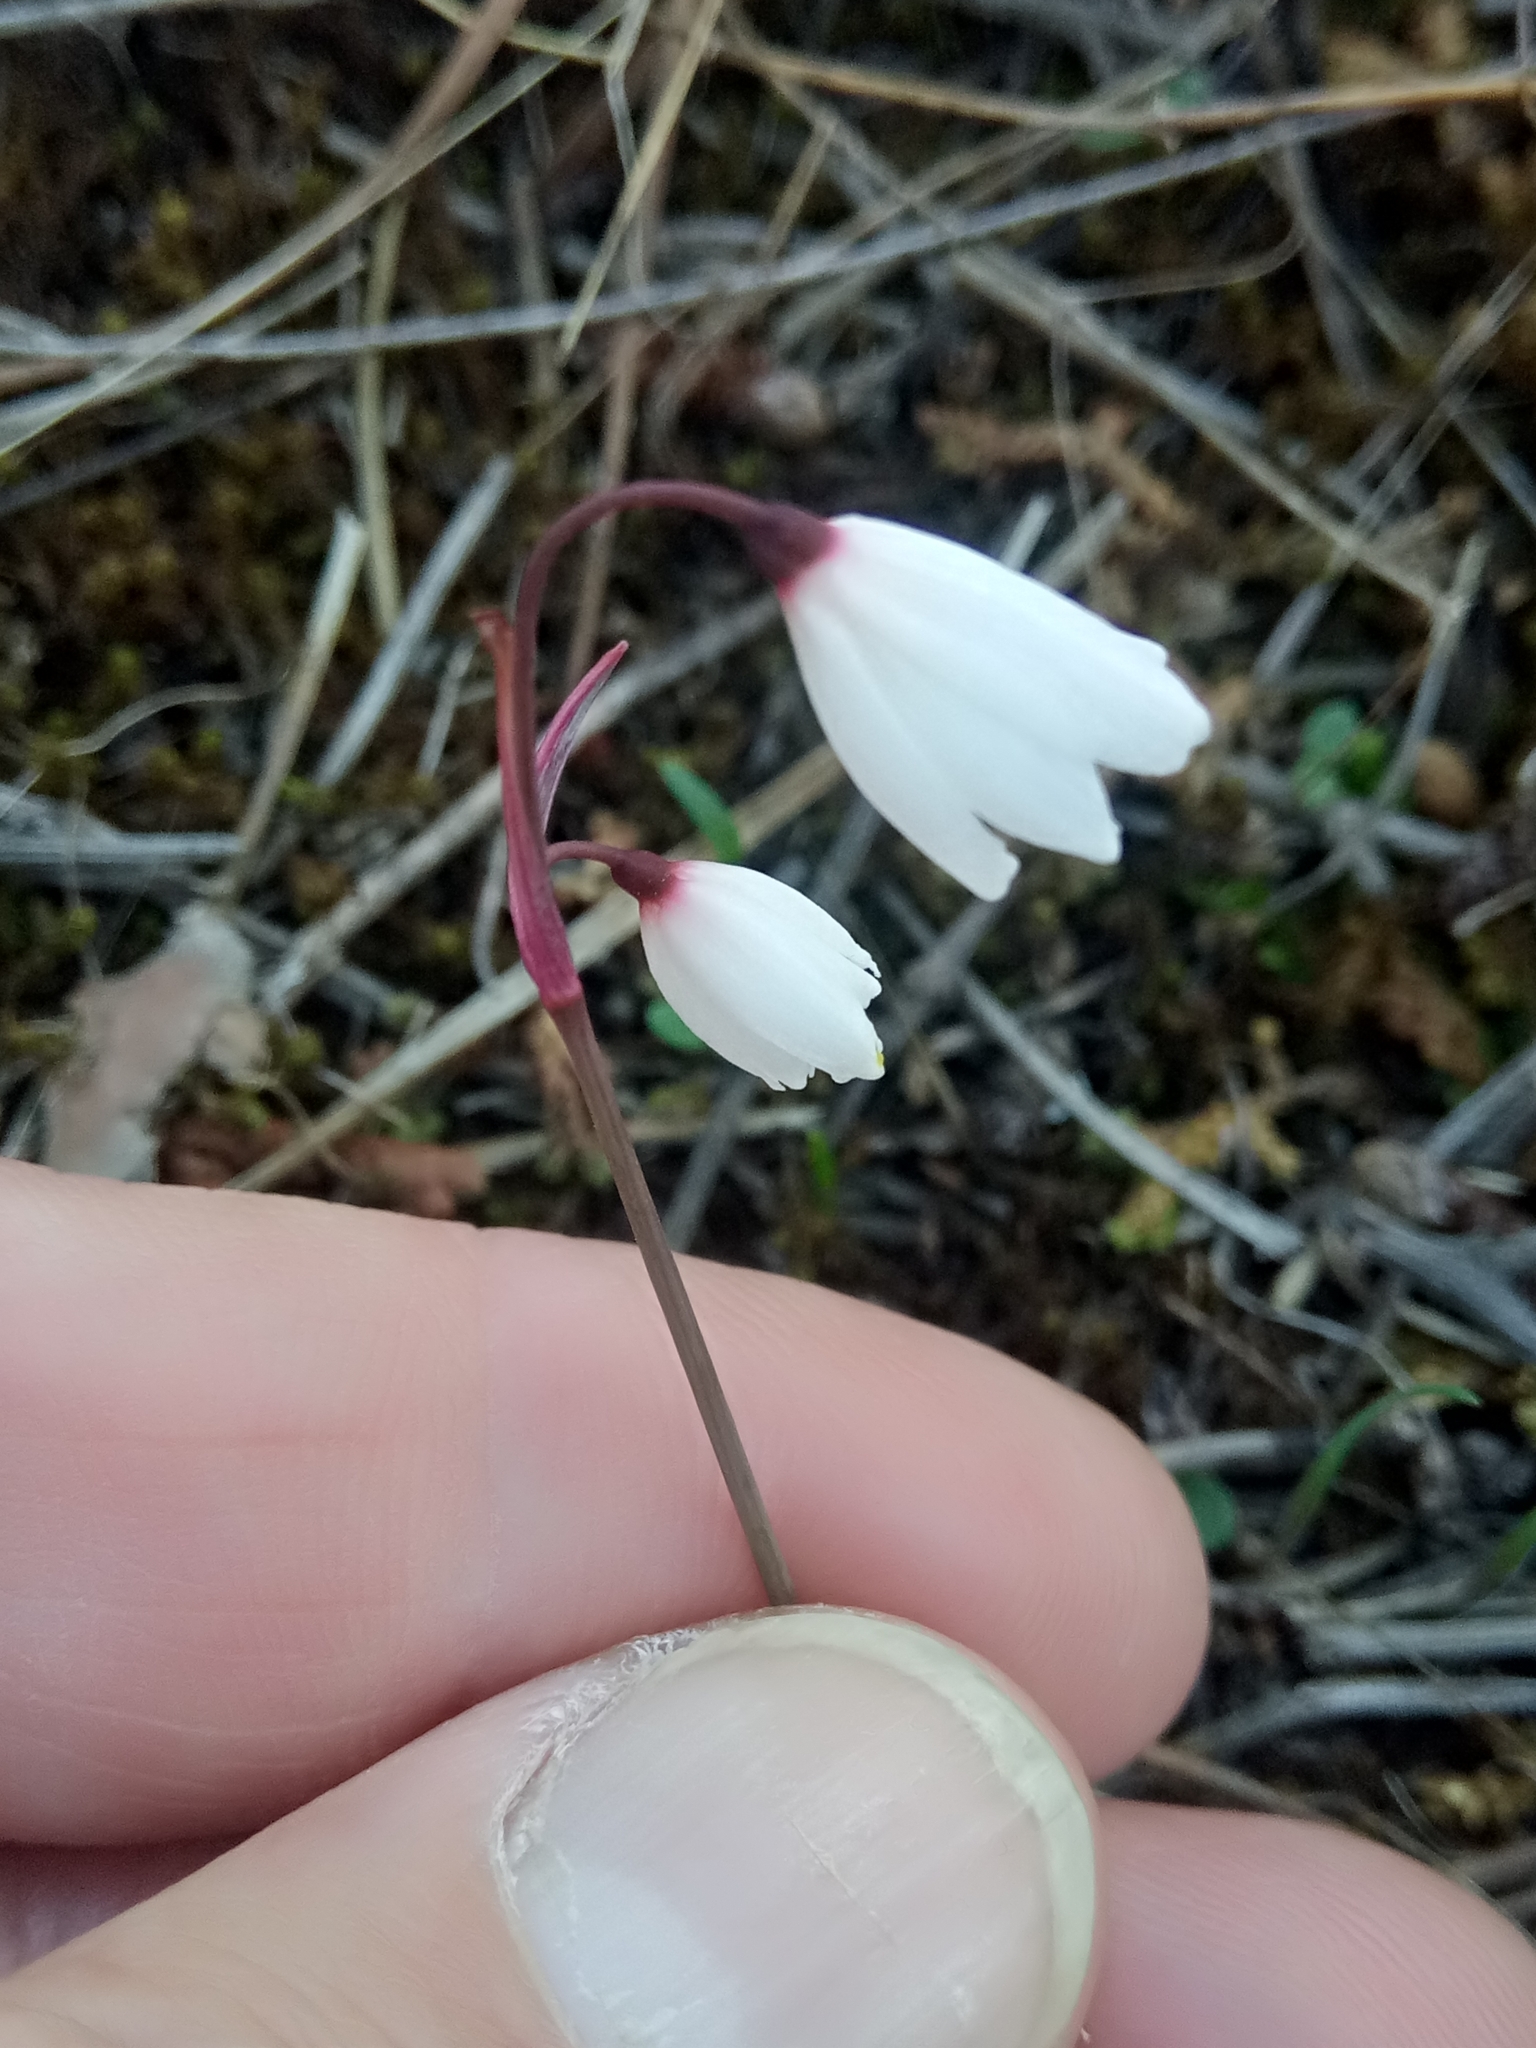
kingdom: Plantae
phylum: Tracheophyta
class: Liliopsida
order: Asparagales
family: Amaryllidaceae
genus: Acis
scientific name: Acis autumnalis
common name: Autumn snowflake
